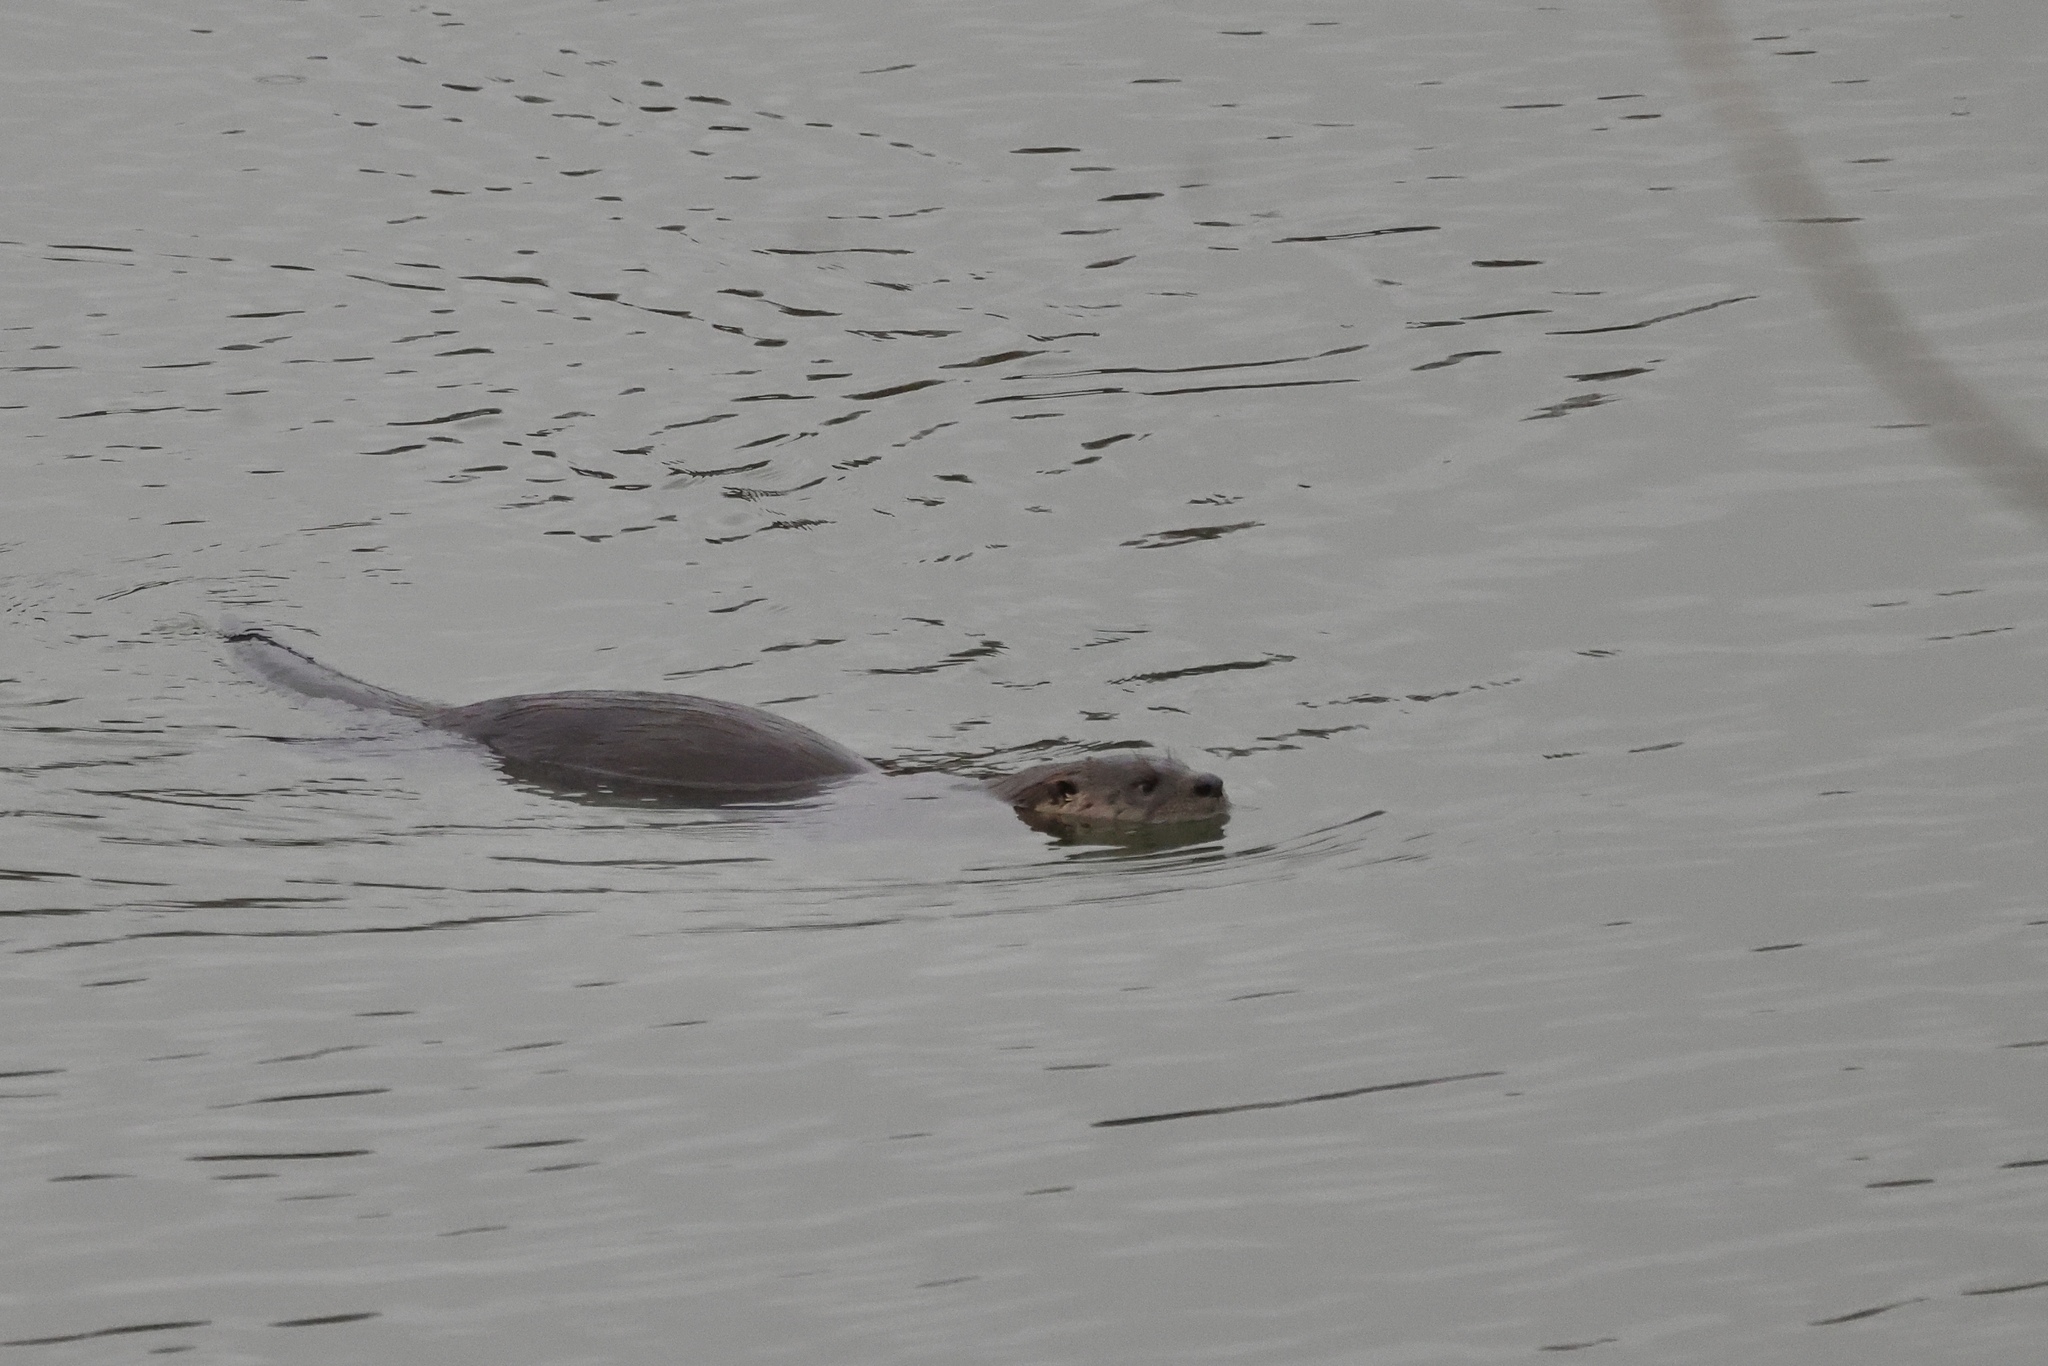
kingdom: Animalia
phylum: Chordata
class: Mammalia
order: Carnivora
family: Mustelidae
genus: Lontra
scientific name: Lontra canadensis
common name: North american river otter
